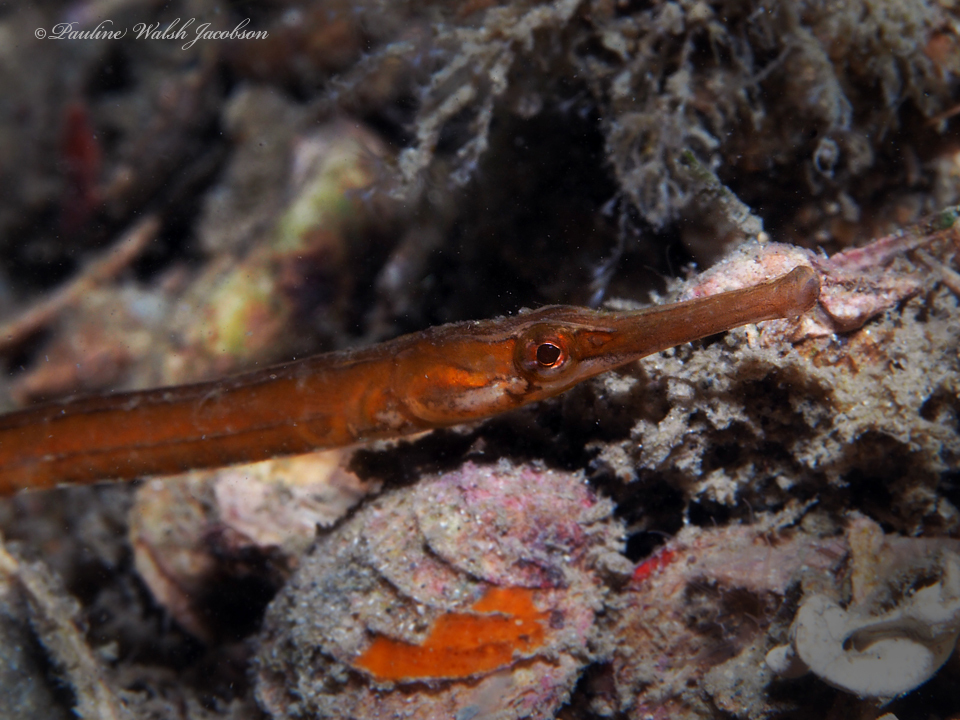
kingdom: Animalia
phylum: Chordata
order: Syngnathiformes
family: Syngnathidae
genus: Syngnathus
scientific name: Syngnathus louisianae
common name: Chain pipefish
